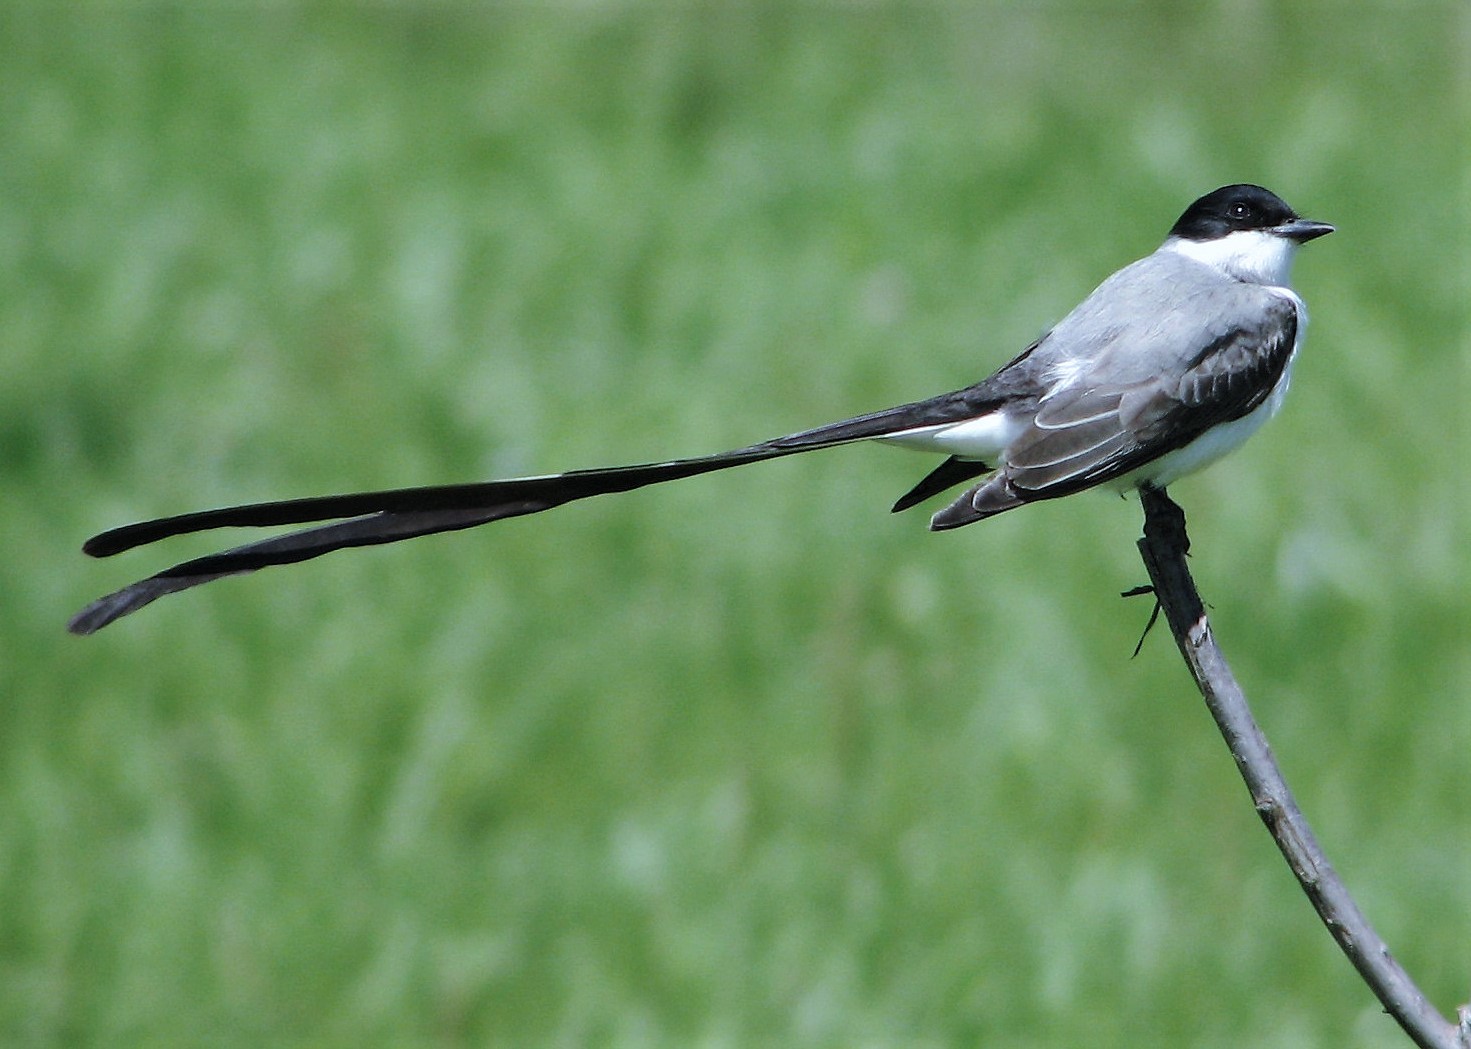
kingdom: Animalia
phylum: Chordata
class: Aves
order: Passeriformes
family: Tyrannidae
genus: Tyrannus
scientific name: Tyrannus savana
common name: Fork-tailed flycatcher
